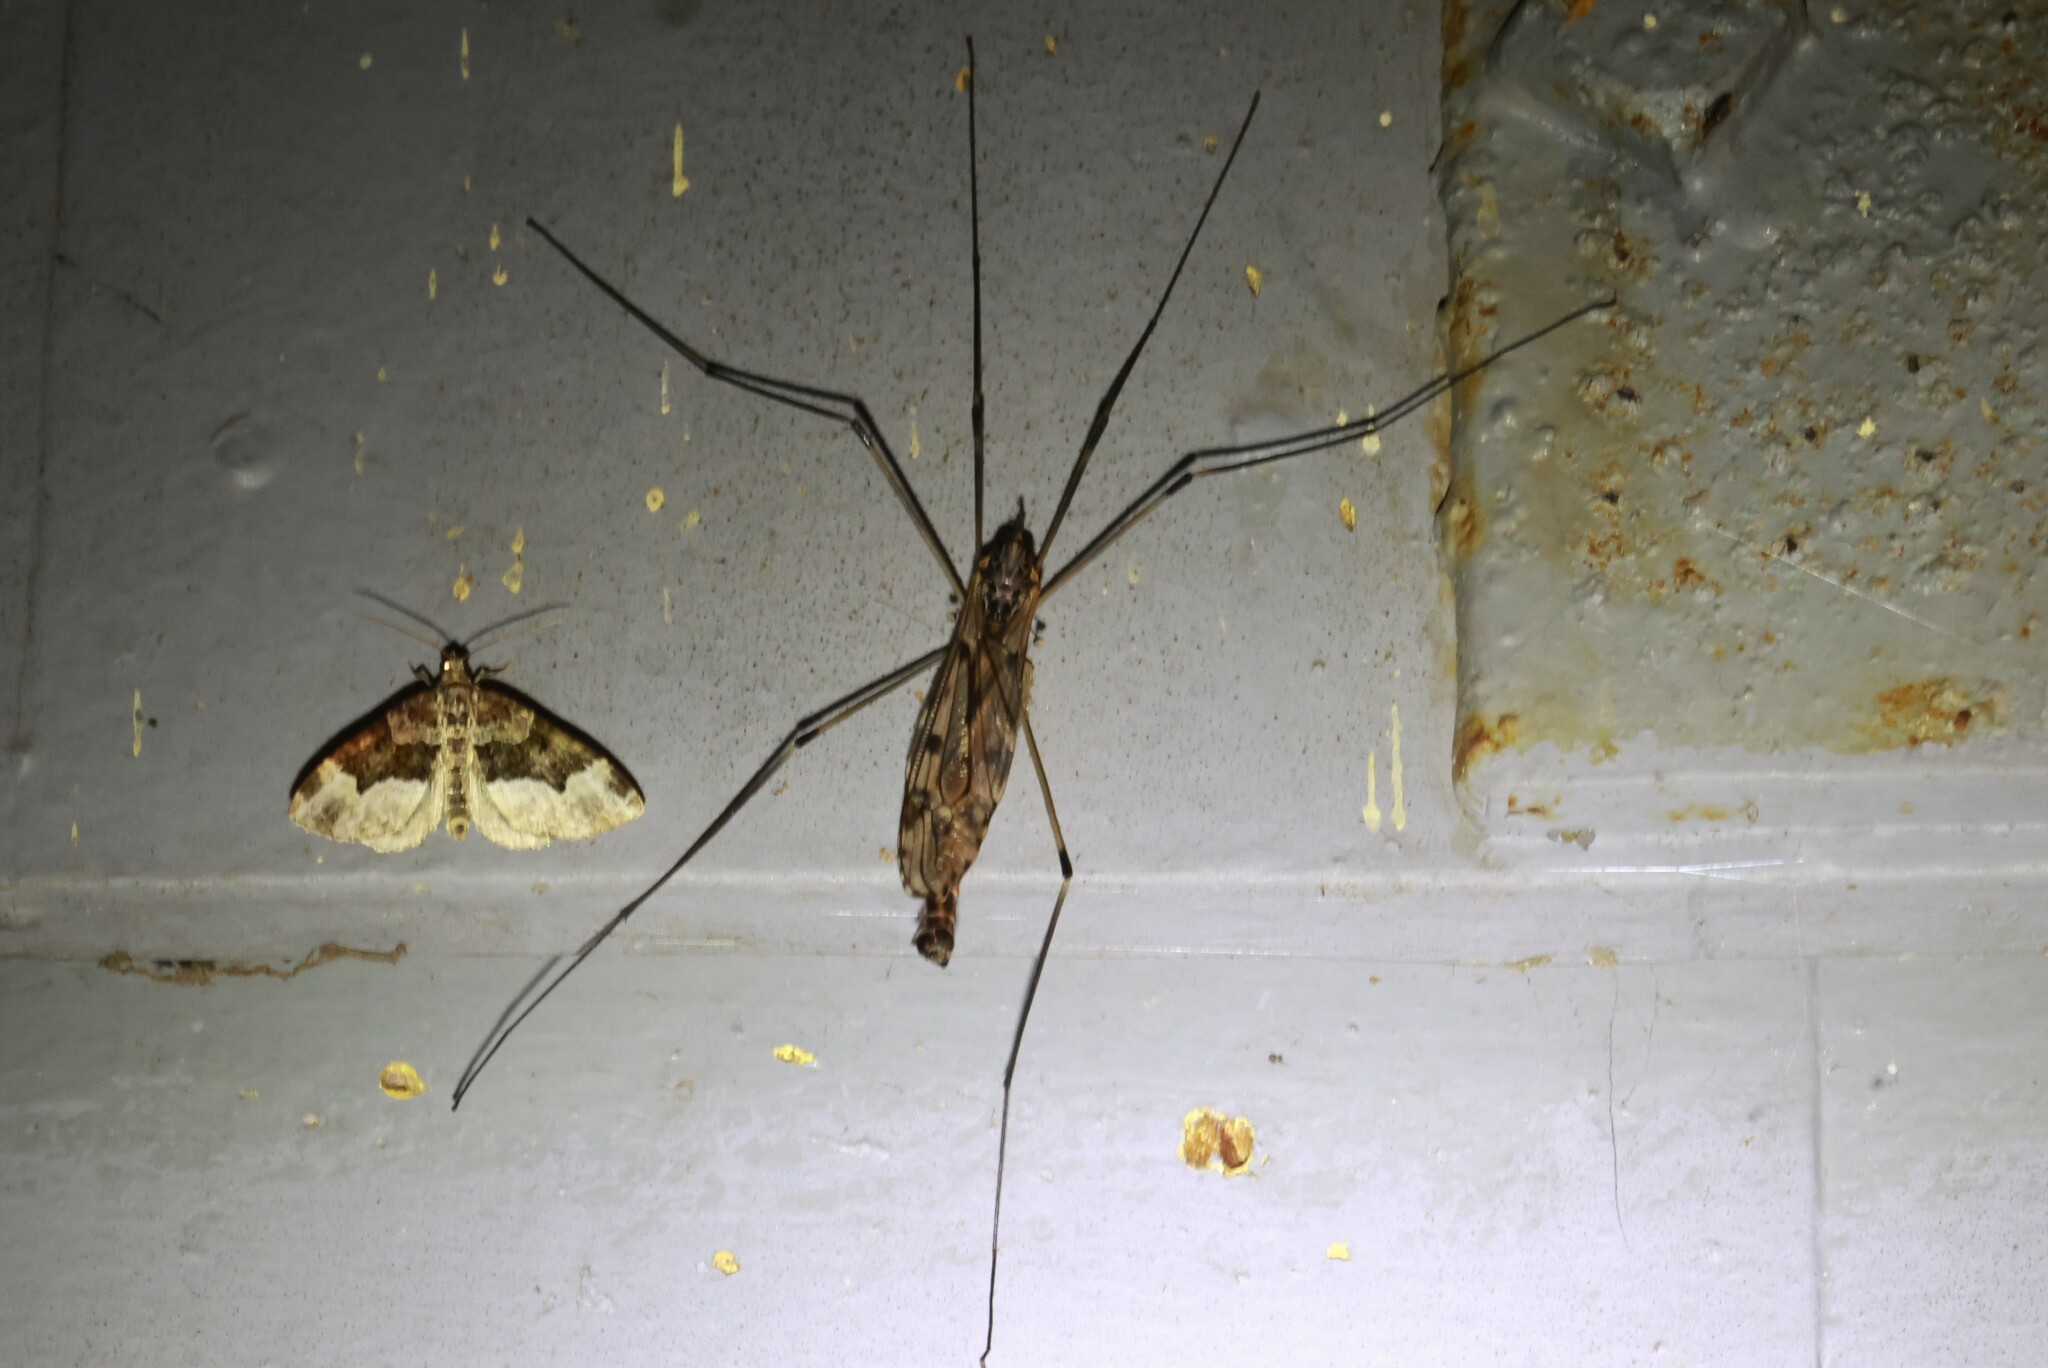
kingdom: Animalia
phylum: Arthropoda
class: Insecta
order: Diptera
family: Tipulidae
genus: Tipula
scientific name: Tipula abdominalis
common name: Giant crane fly
